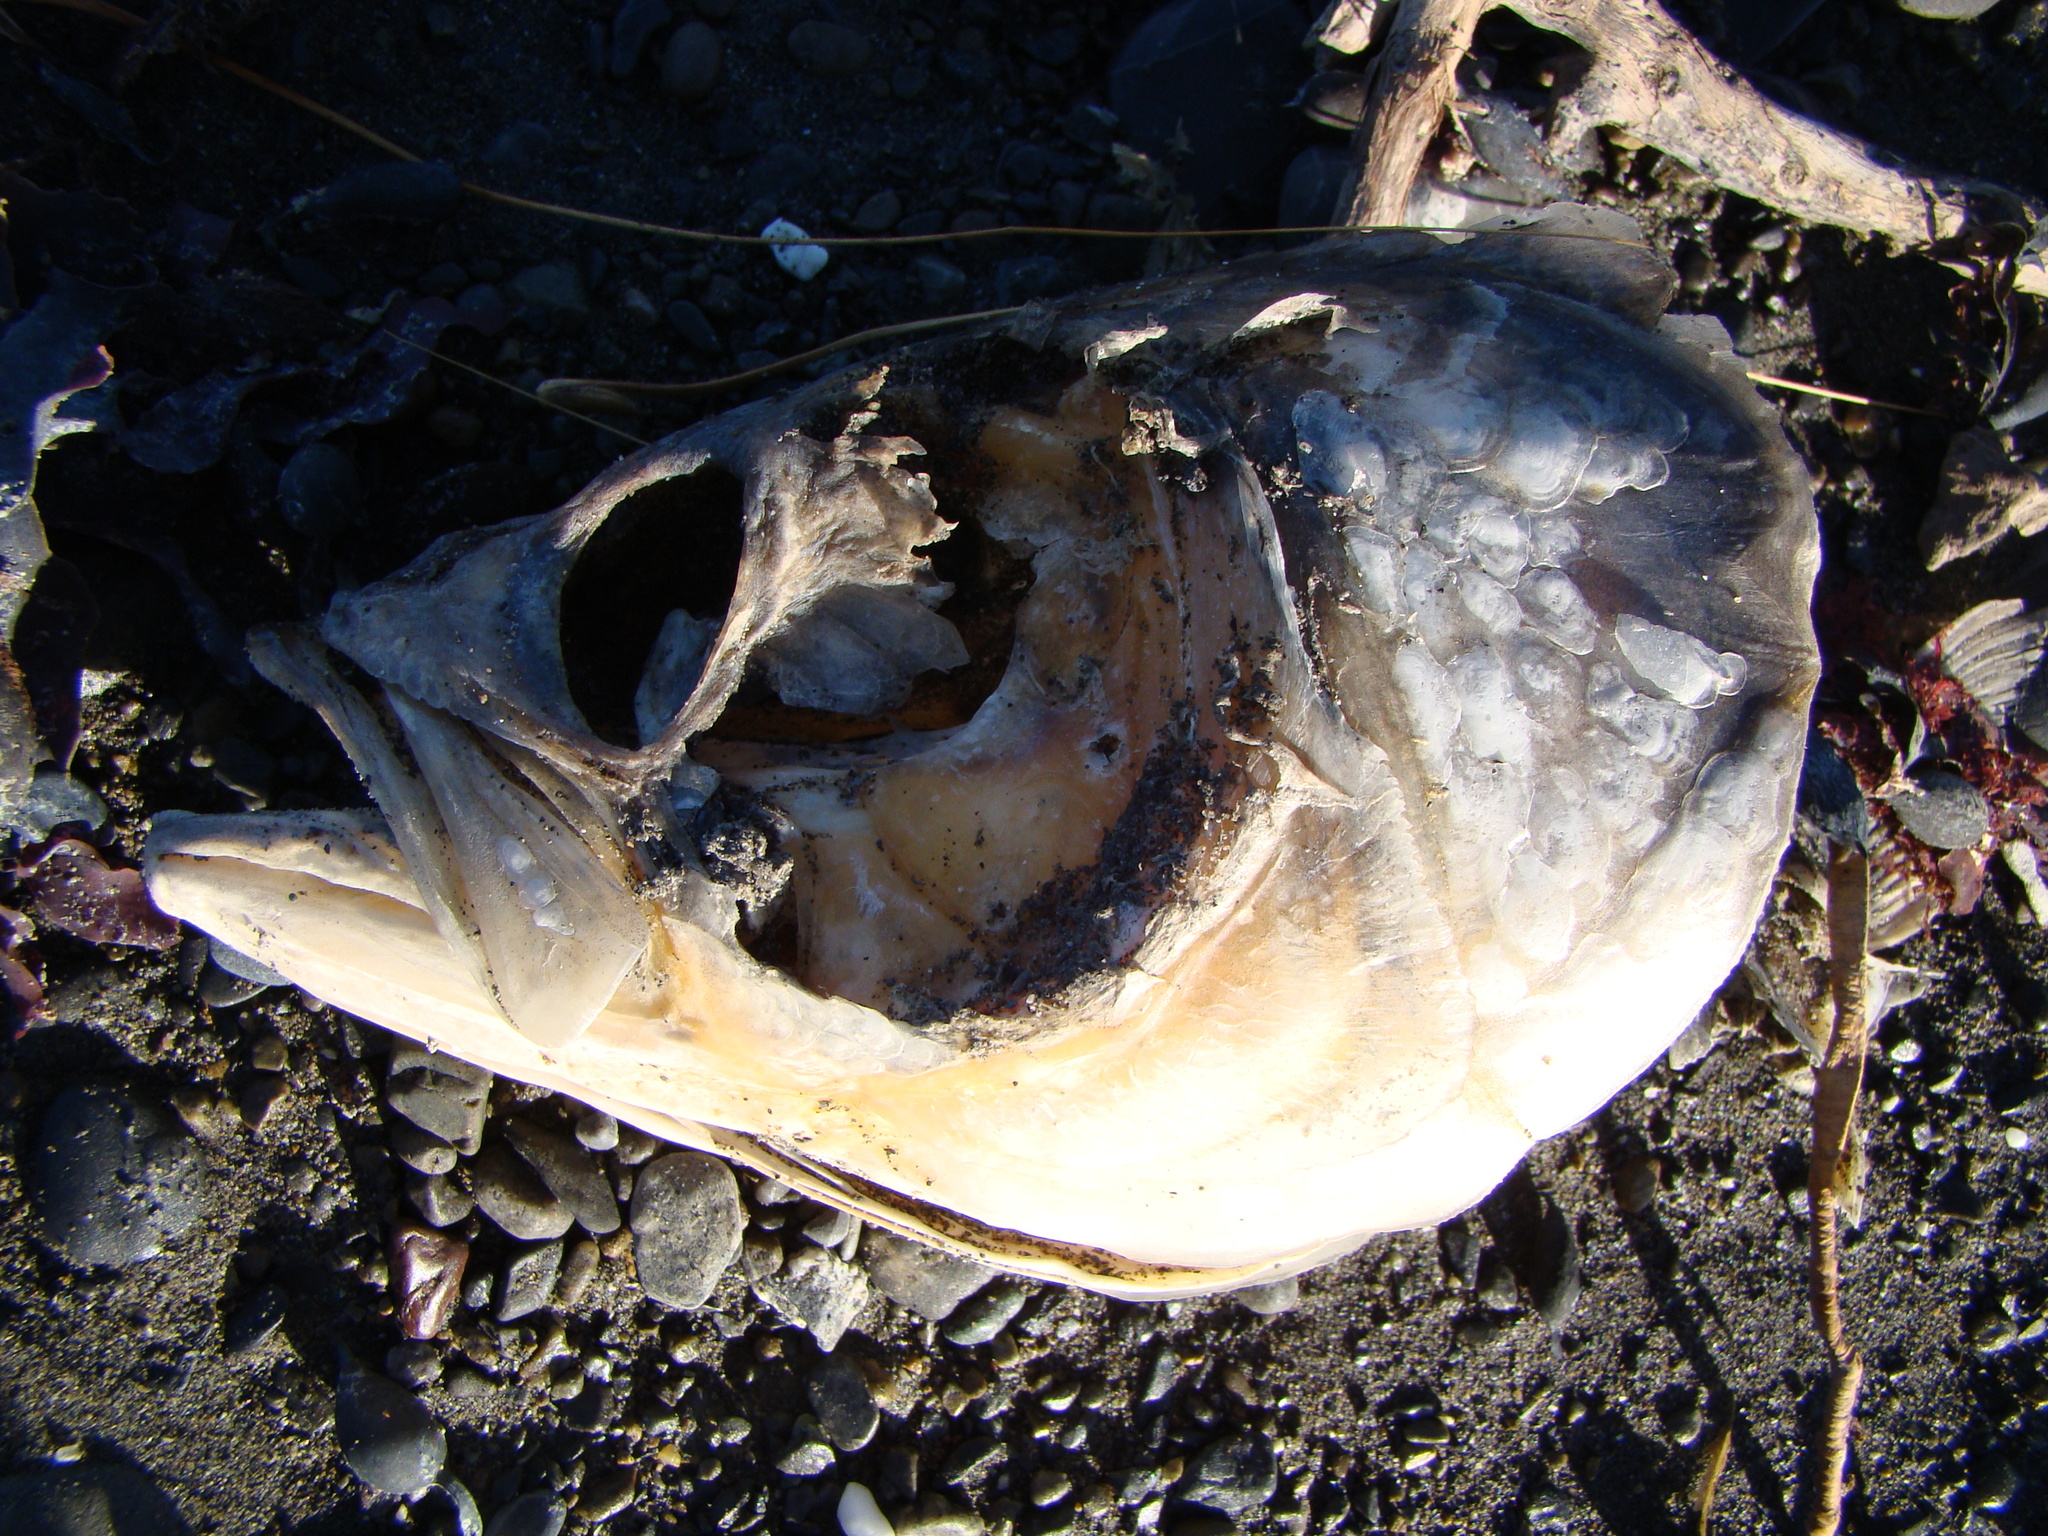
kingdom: Animalia
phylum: Chordata
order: Perciformes
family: Arripidae
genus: Arripis
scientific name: Arripis trutta
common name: Kahawai
